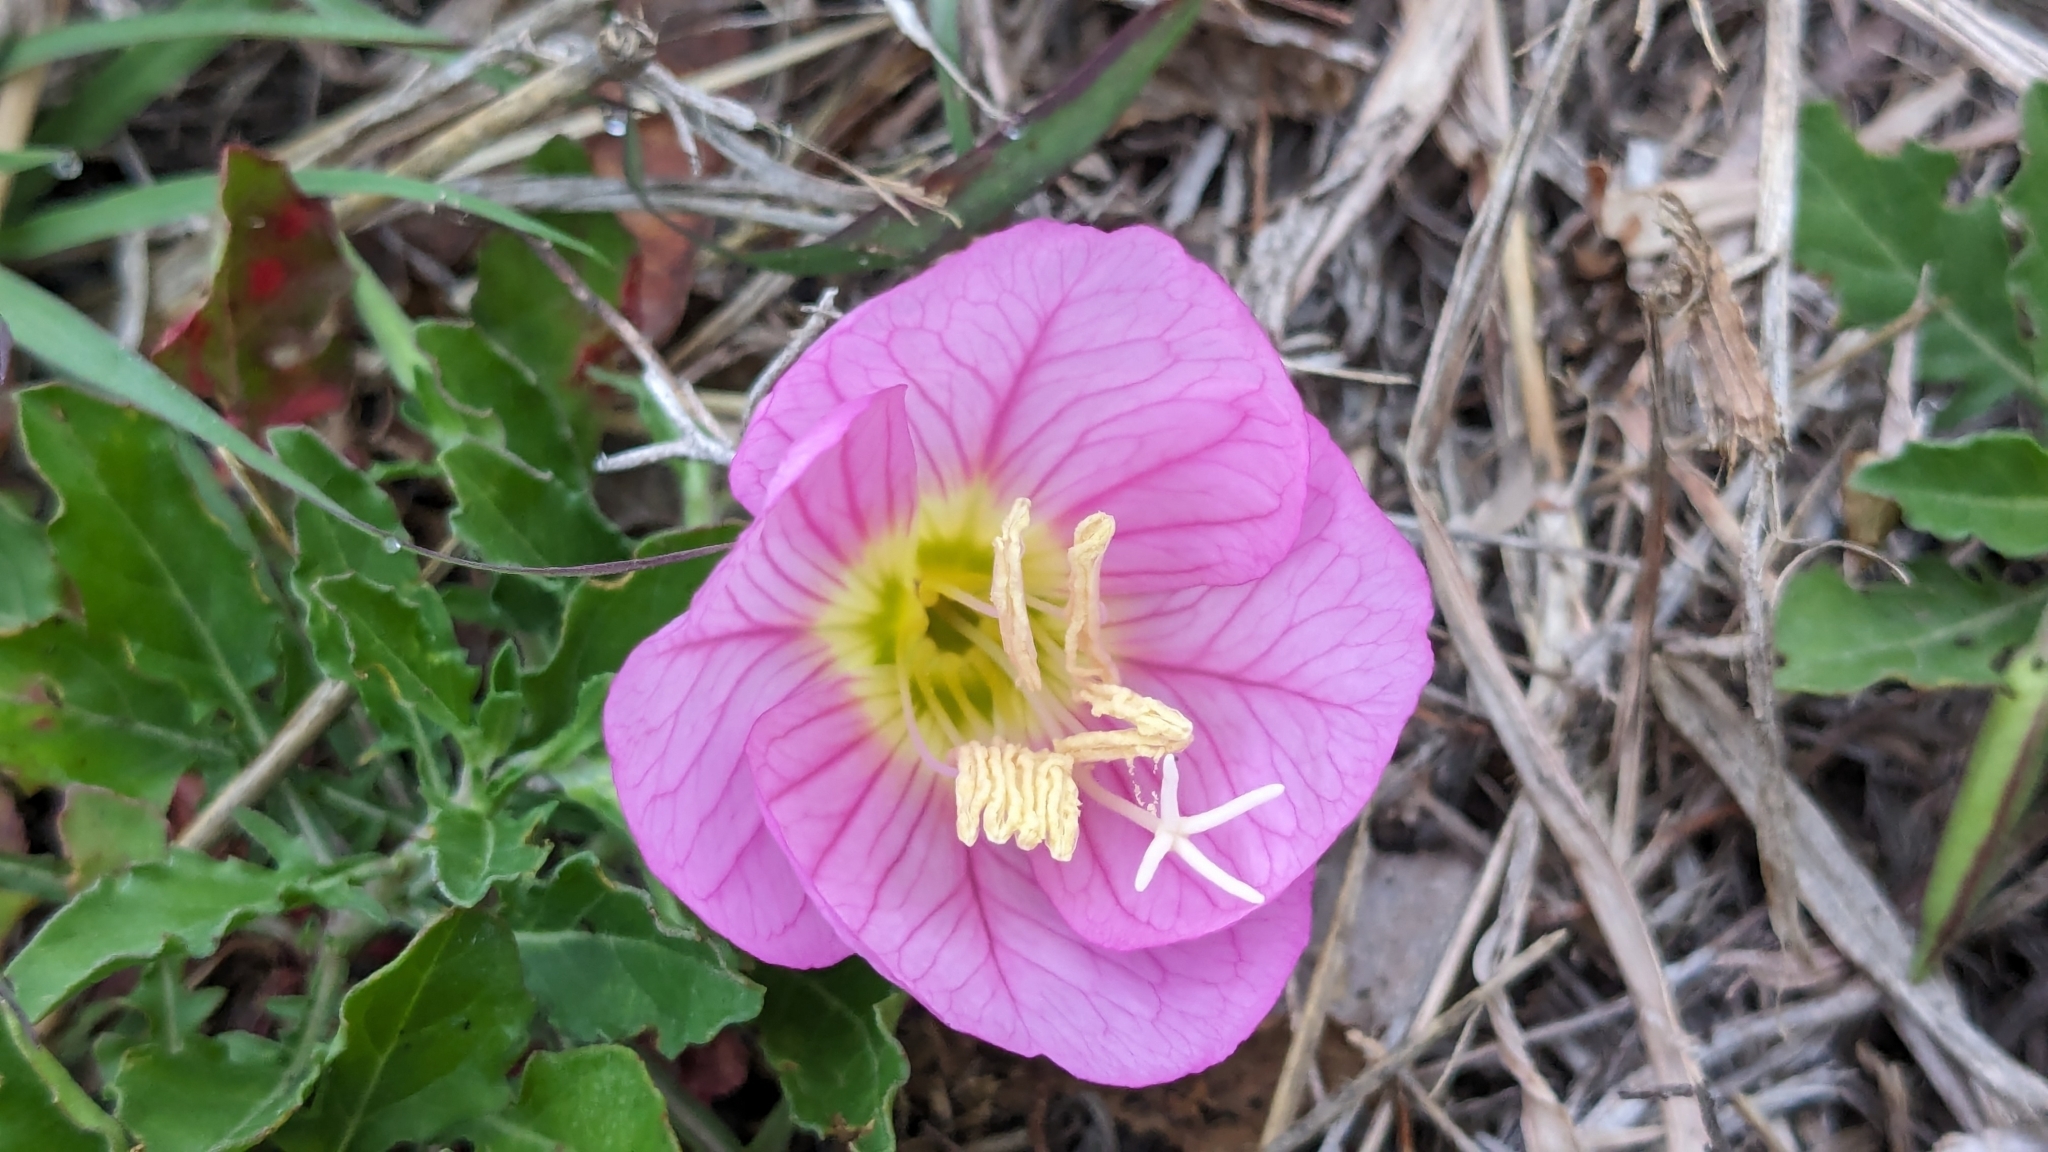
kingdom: Plantae
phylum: Tracheophyta
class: Magnoliopsida
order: Myrtales
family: Onagraceae
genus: Oenothera
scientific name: Oenothera speciosa
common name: White evening-primrose
